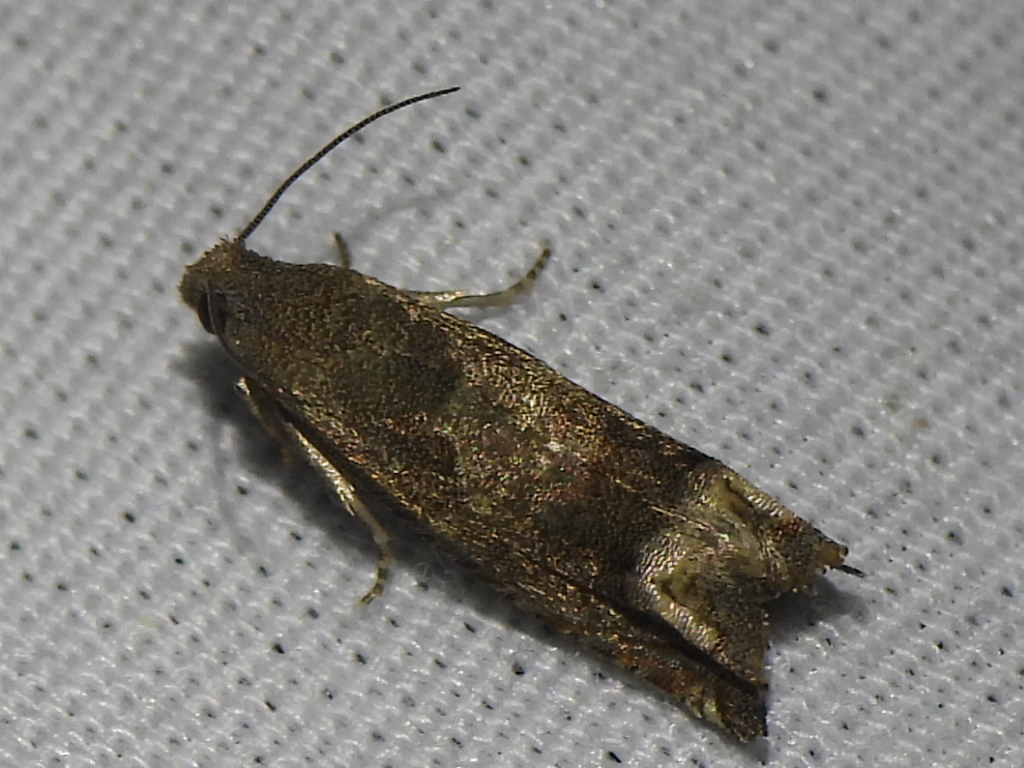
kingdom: Animalia
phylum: Arthropoda
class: Insecta
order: Lepidoptera
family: Tortricidae
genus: Epiblema
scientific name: Epiblema strenuana
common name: Ragweed borer moth
